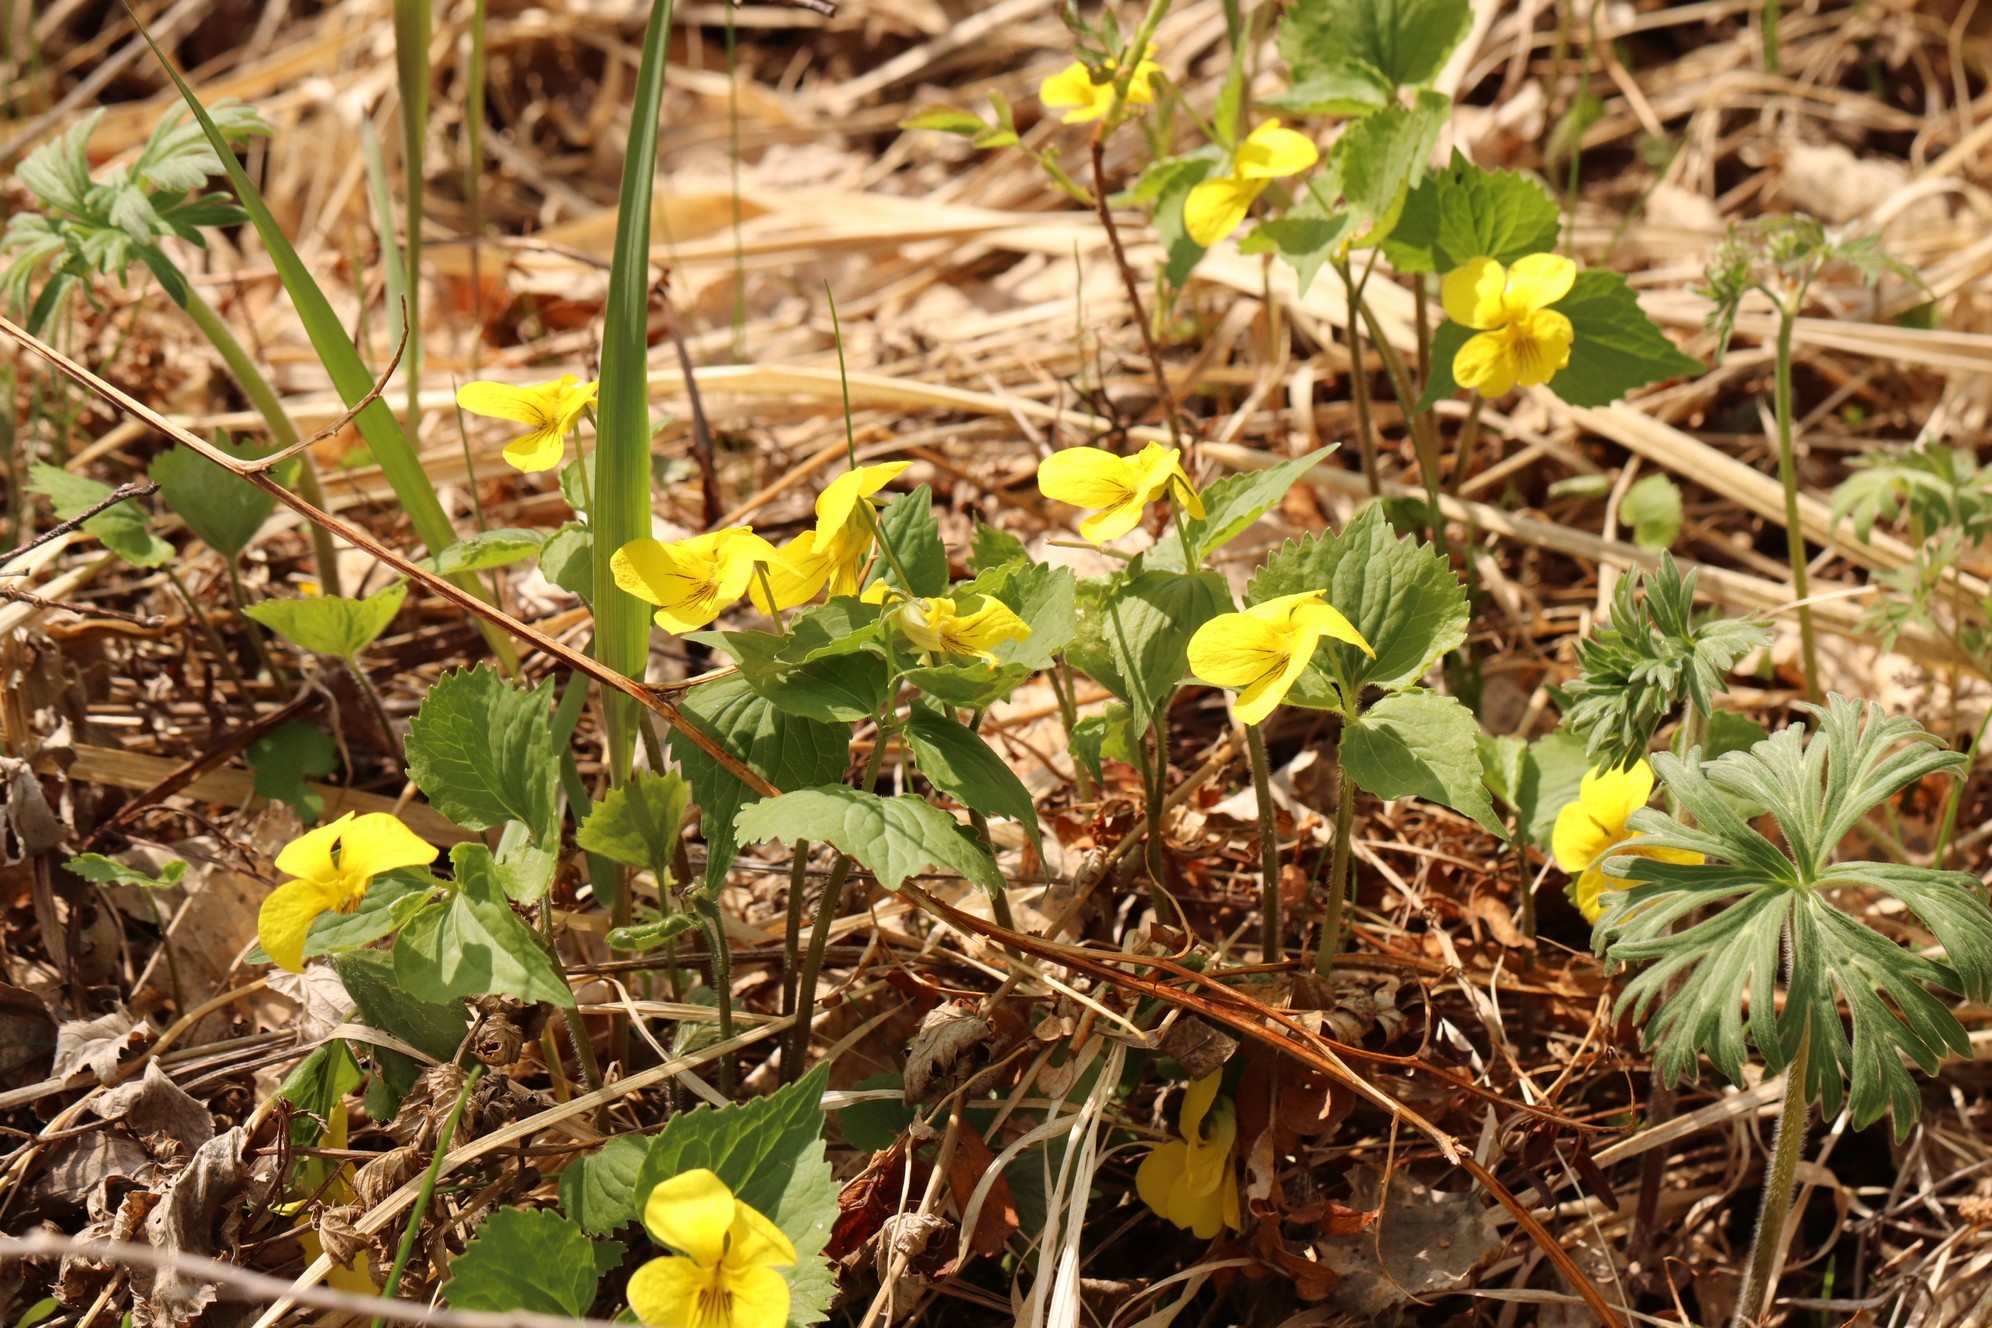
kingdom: Plantae
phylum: Tracheophyta
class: Magnoliopsida
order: Malpighiales
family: Violaceae
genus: Viola
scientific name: Viola uniflora
